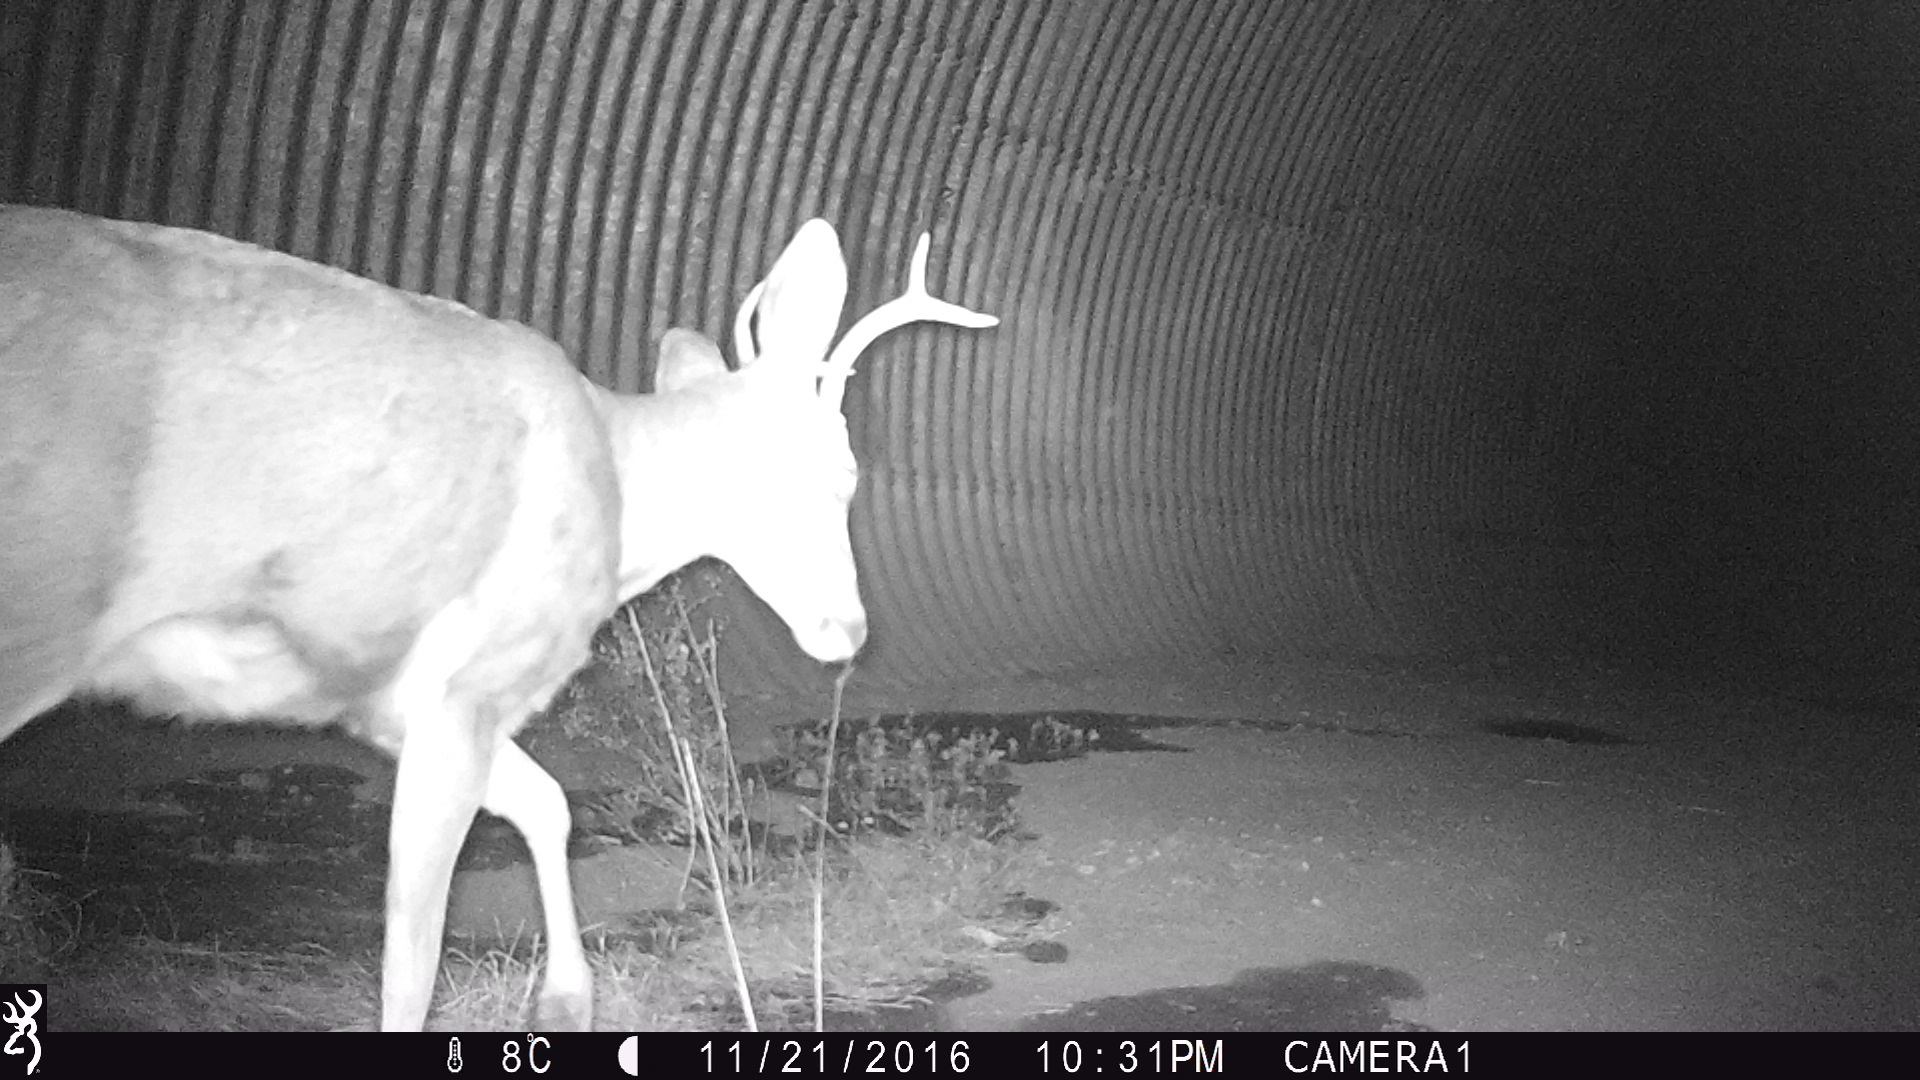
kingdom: Animalia
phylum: Chordata
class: Mammalia
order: Artiodactyla
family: Cervidae
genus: Odocoileus
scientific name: Odocoileus hemionus
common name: Mule deer
